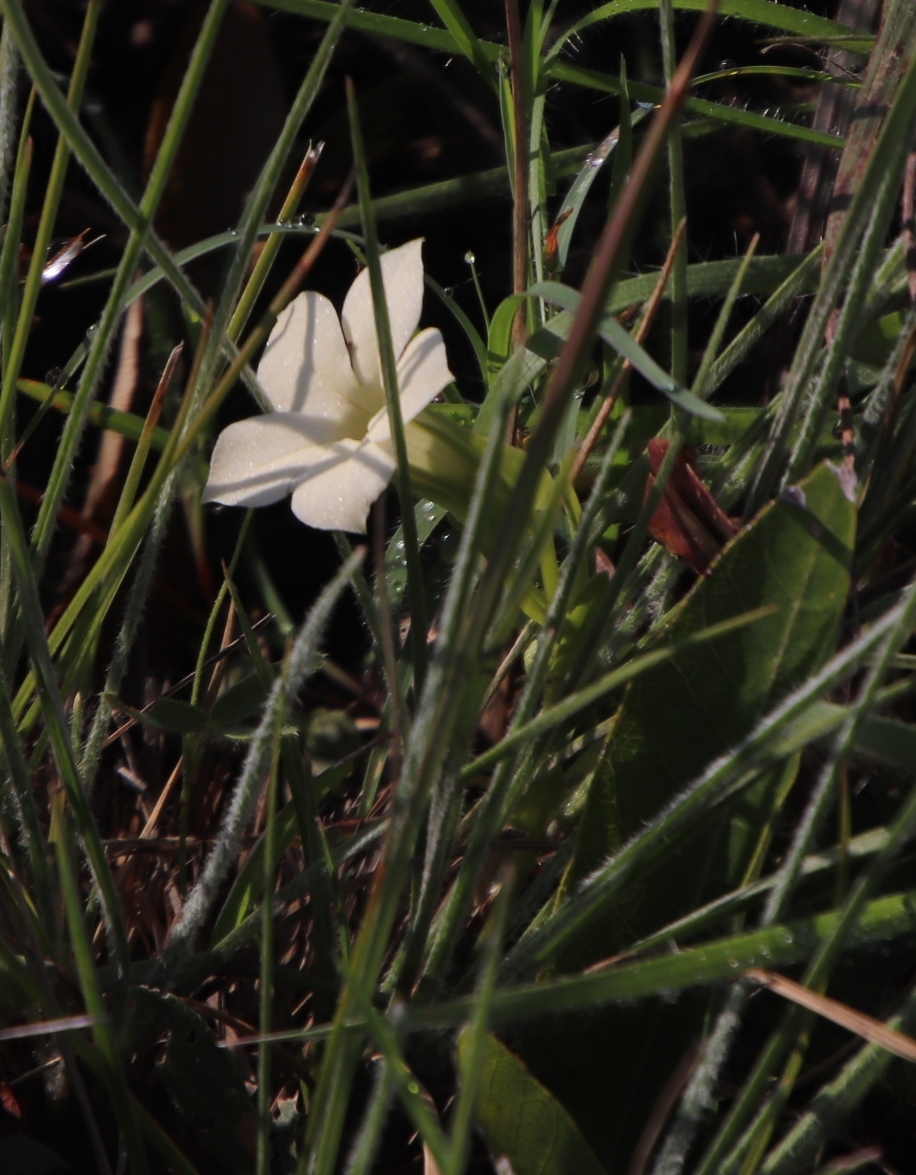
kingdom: Plantae
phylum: Tracheophyta
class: Magnoliopsida
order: Gentianales
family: Gentianaceae
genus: Exochaenium
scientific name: Exochaenium grande
